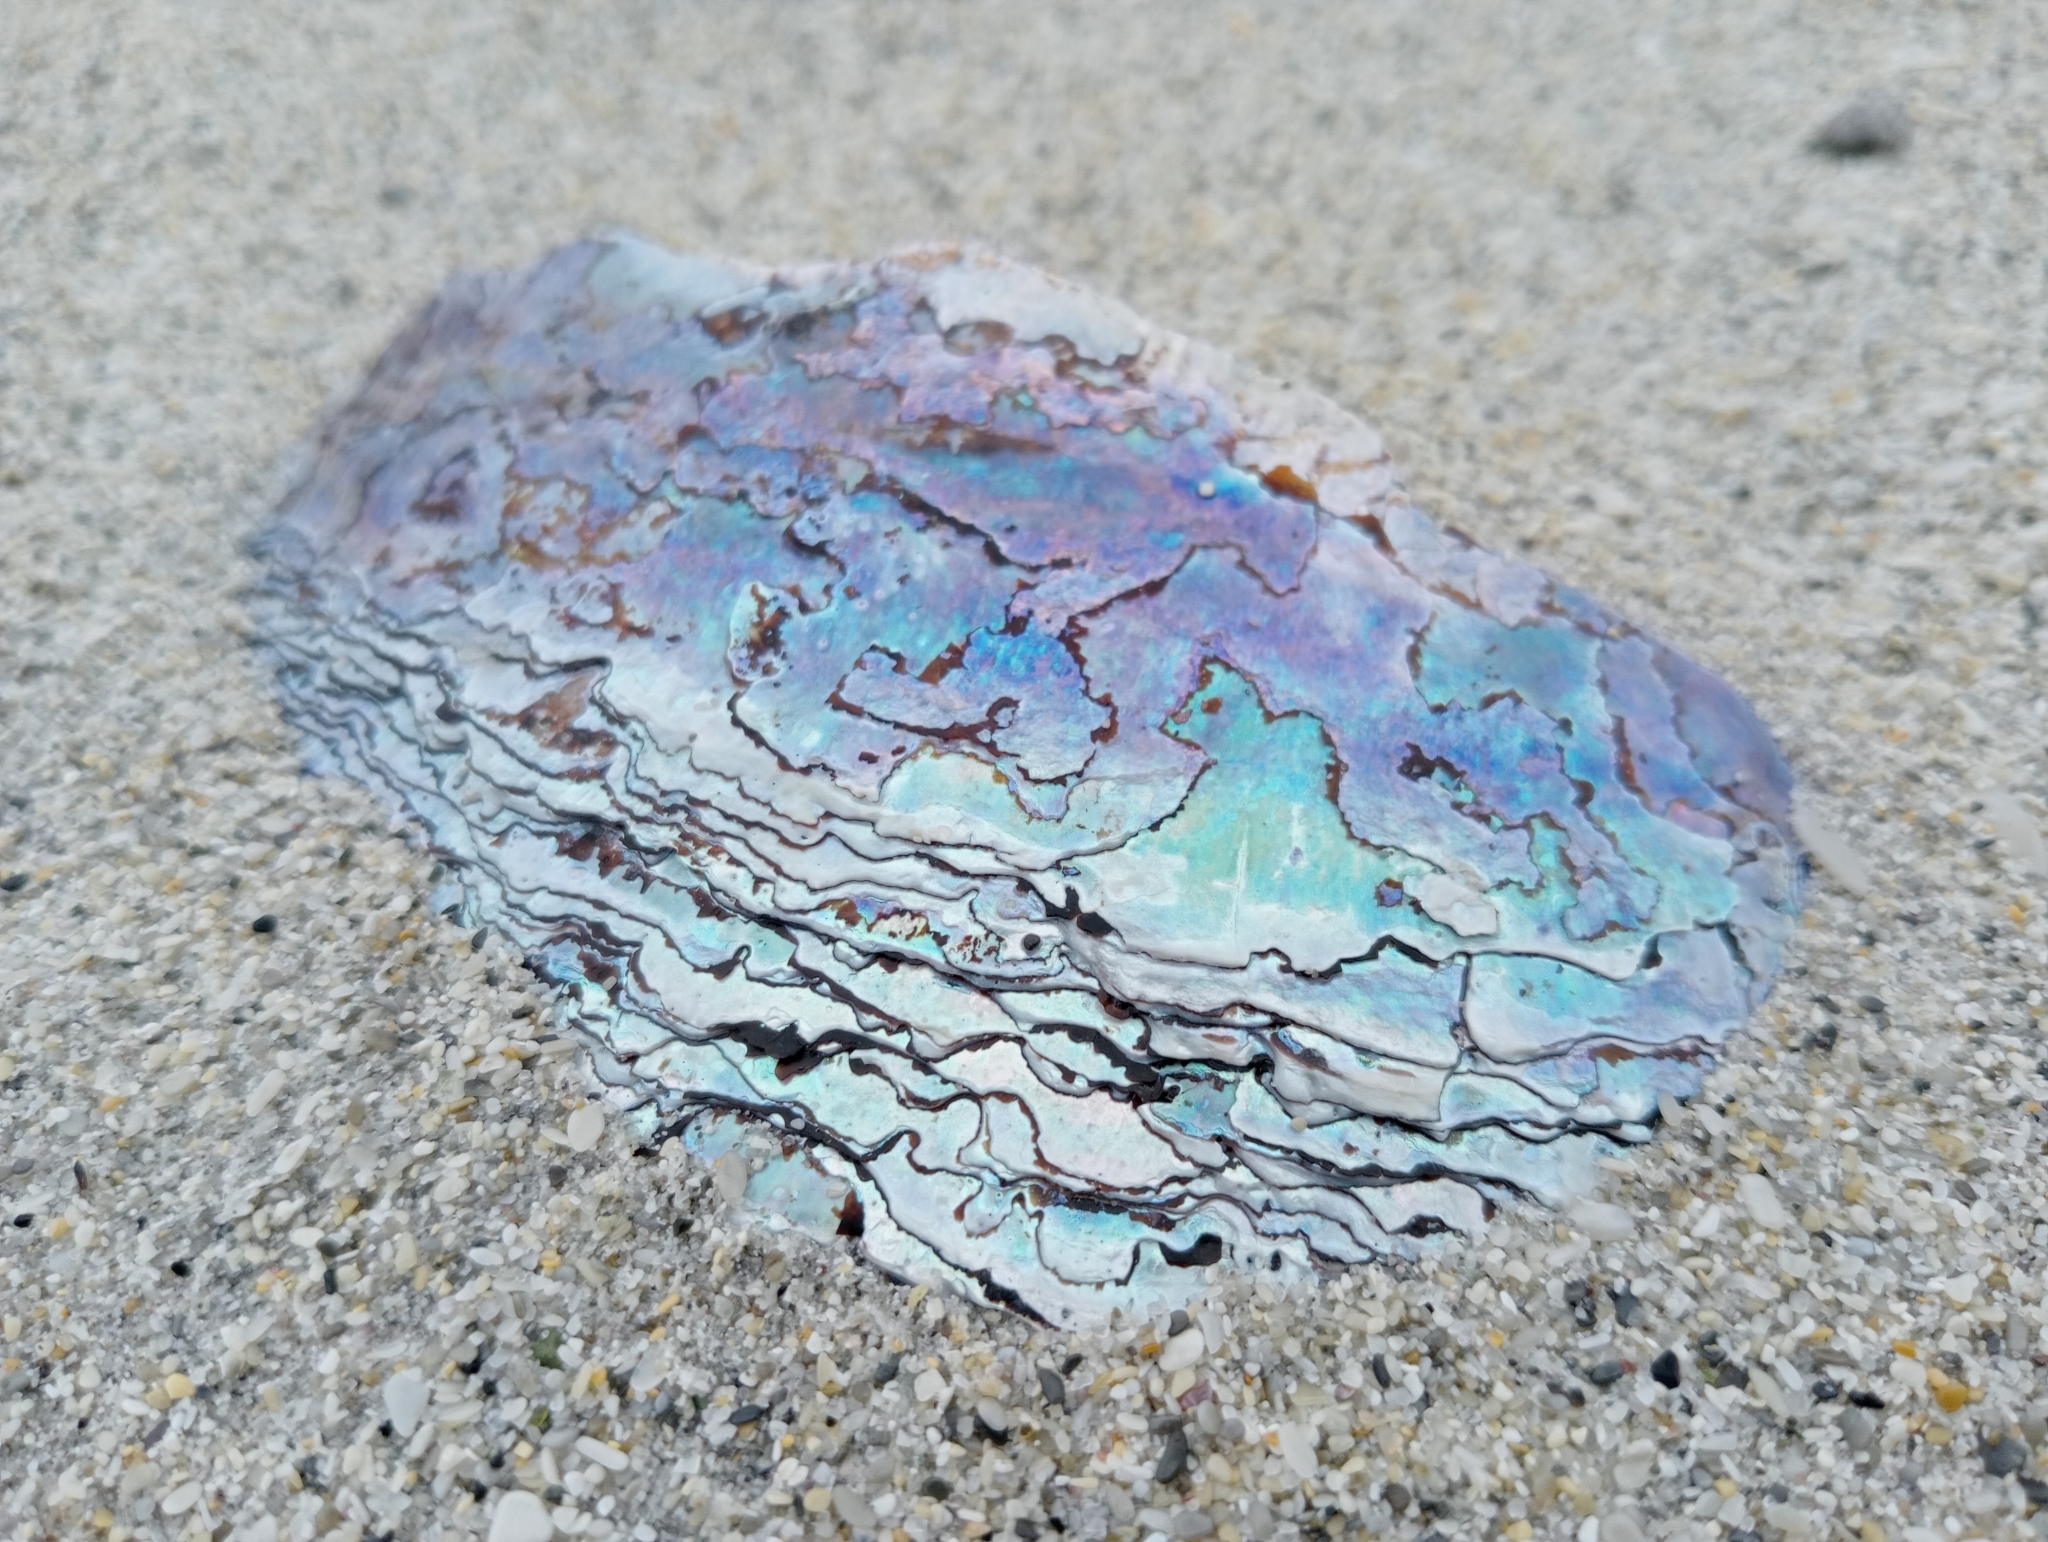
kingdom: Animalia
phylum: Mollusca
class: Gastropoda
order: Lepetellida
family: Haliotidae
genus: Haliotis
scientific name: Haliotis iris
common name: Abalone
